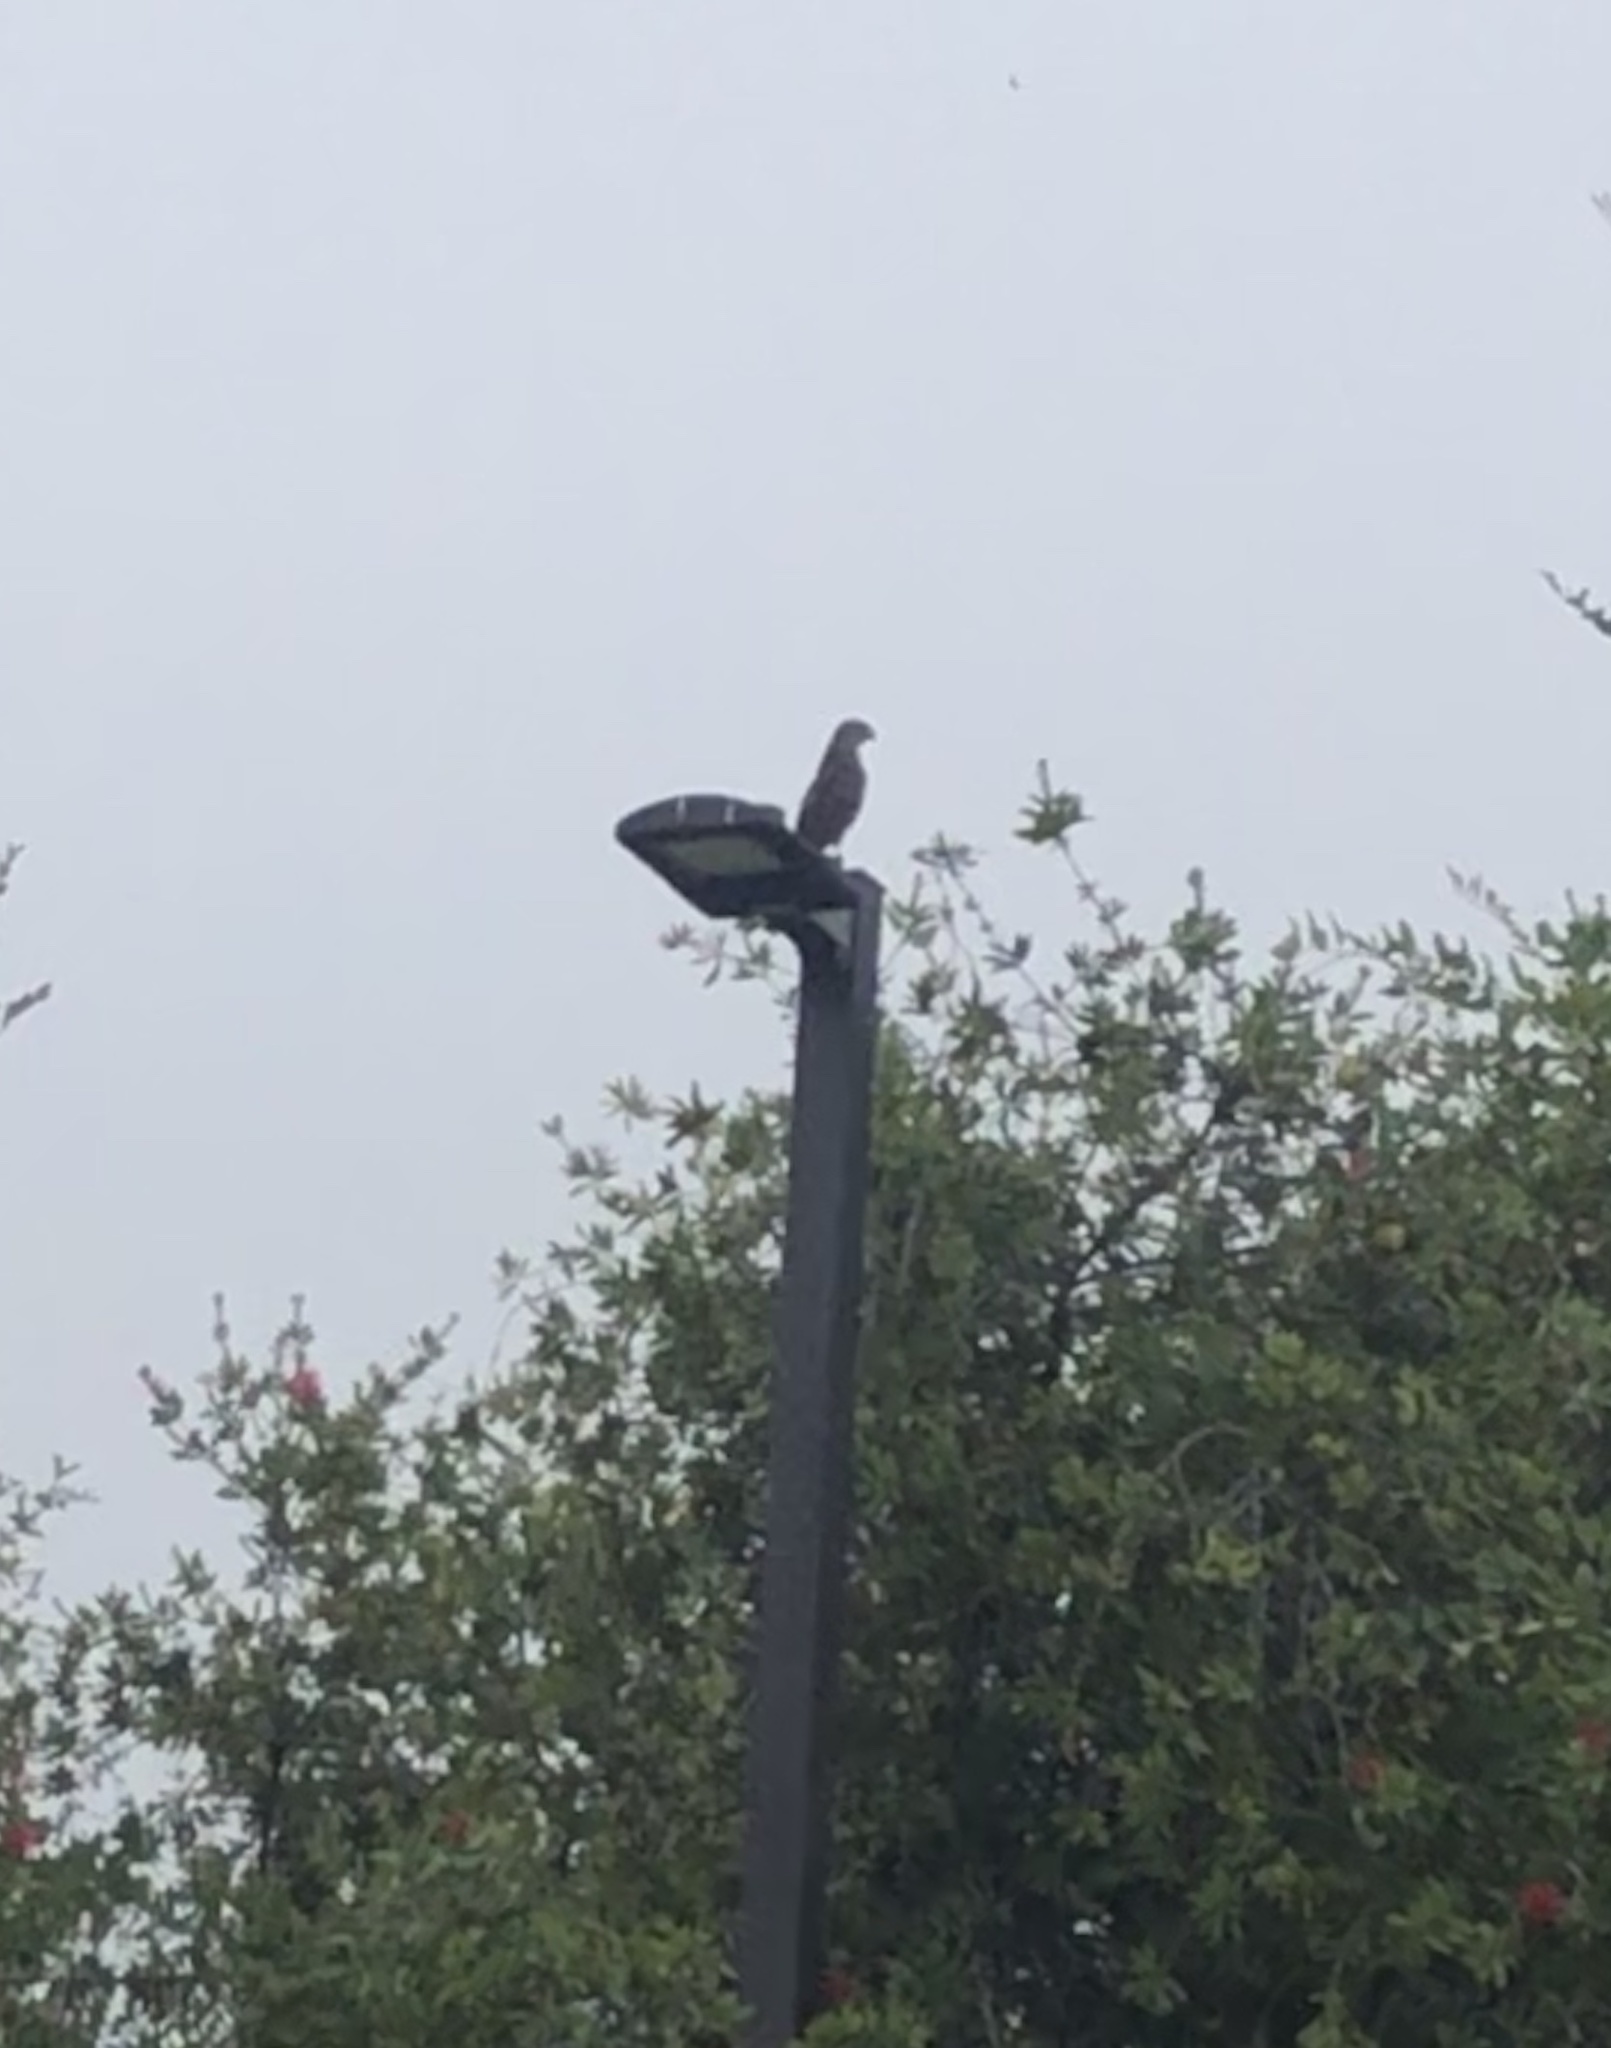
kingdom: Animalia
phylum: Chordata
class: Aves
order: Accipitriformes
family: Accipitridae
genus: Accipiter
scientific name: Accipiter cooperii
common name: Cooper's hawk
